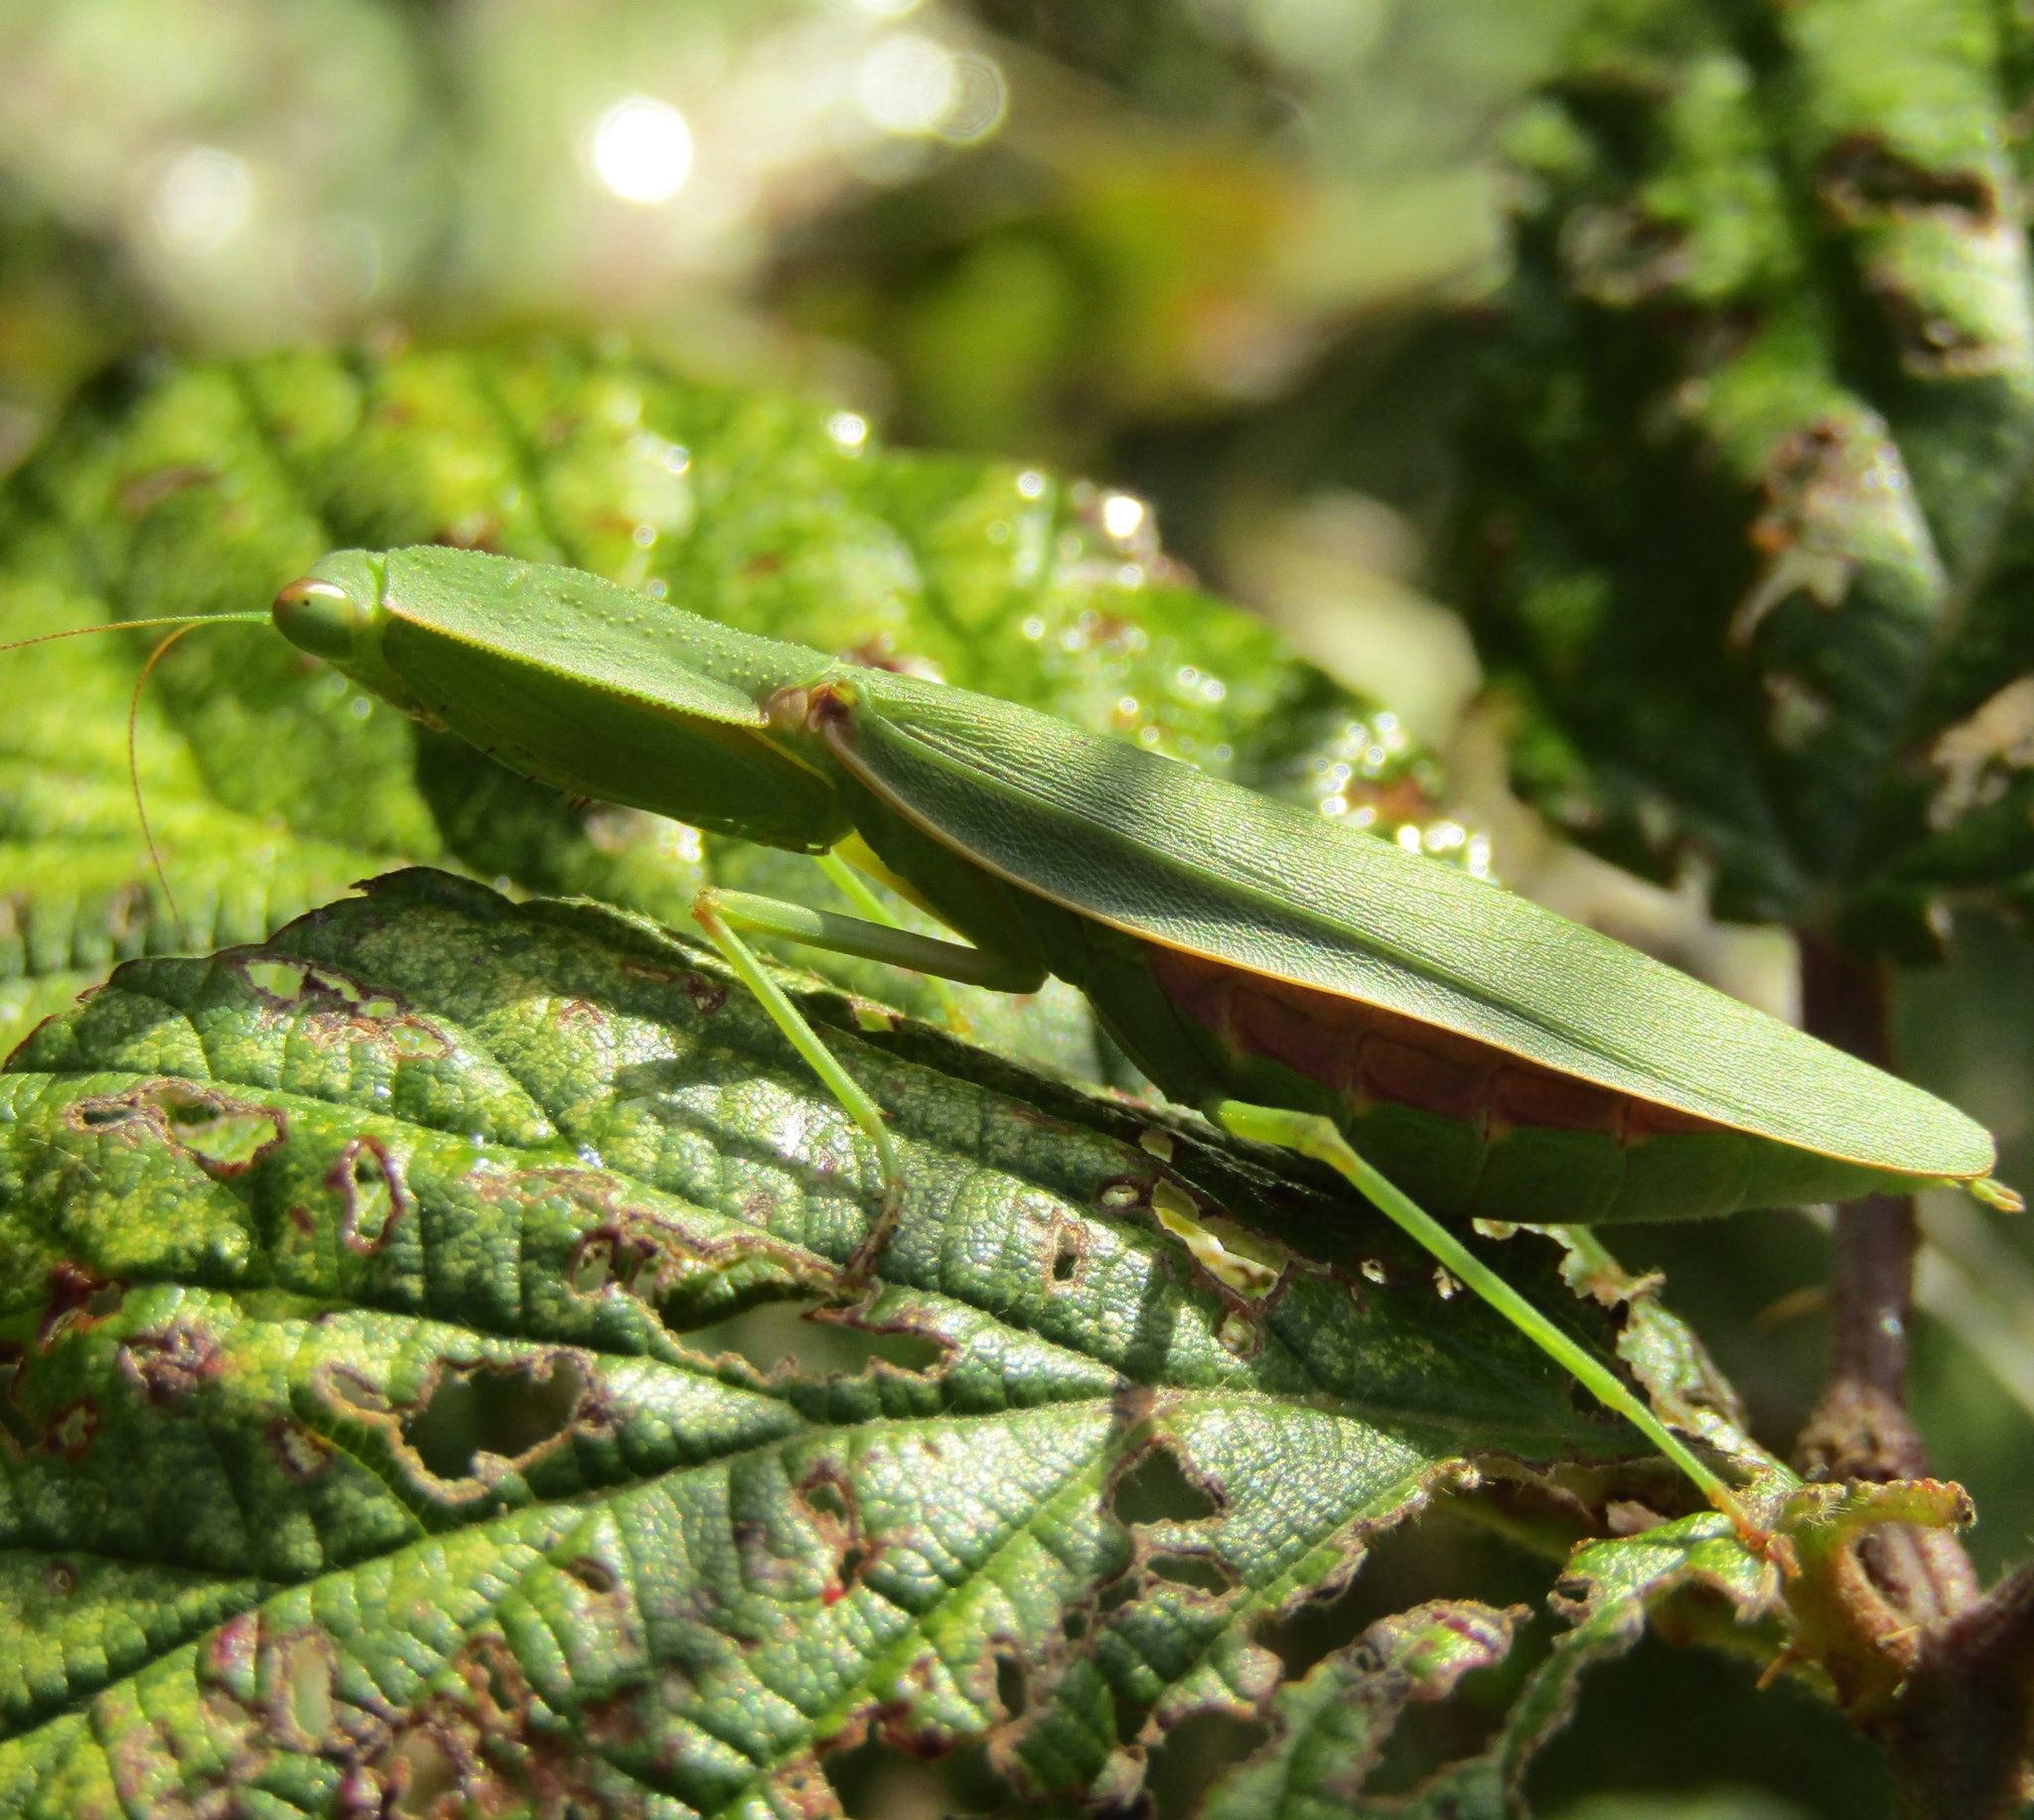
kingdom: Animalia
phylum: Arthropoda
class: Insecta
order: Mantodea
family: Mantidae
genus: Orthodera
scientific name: Orthodera novaezealandiae
